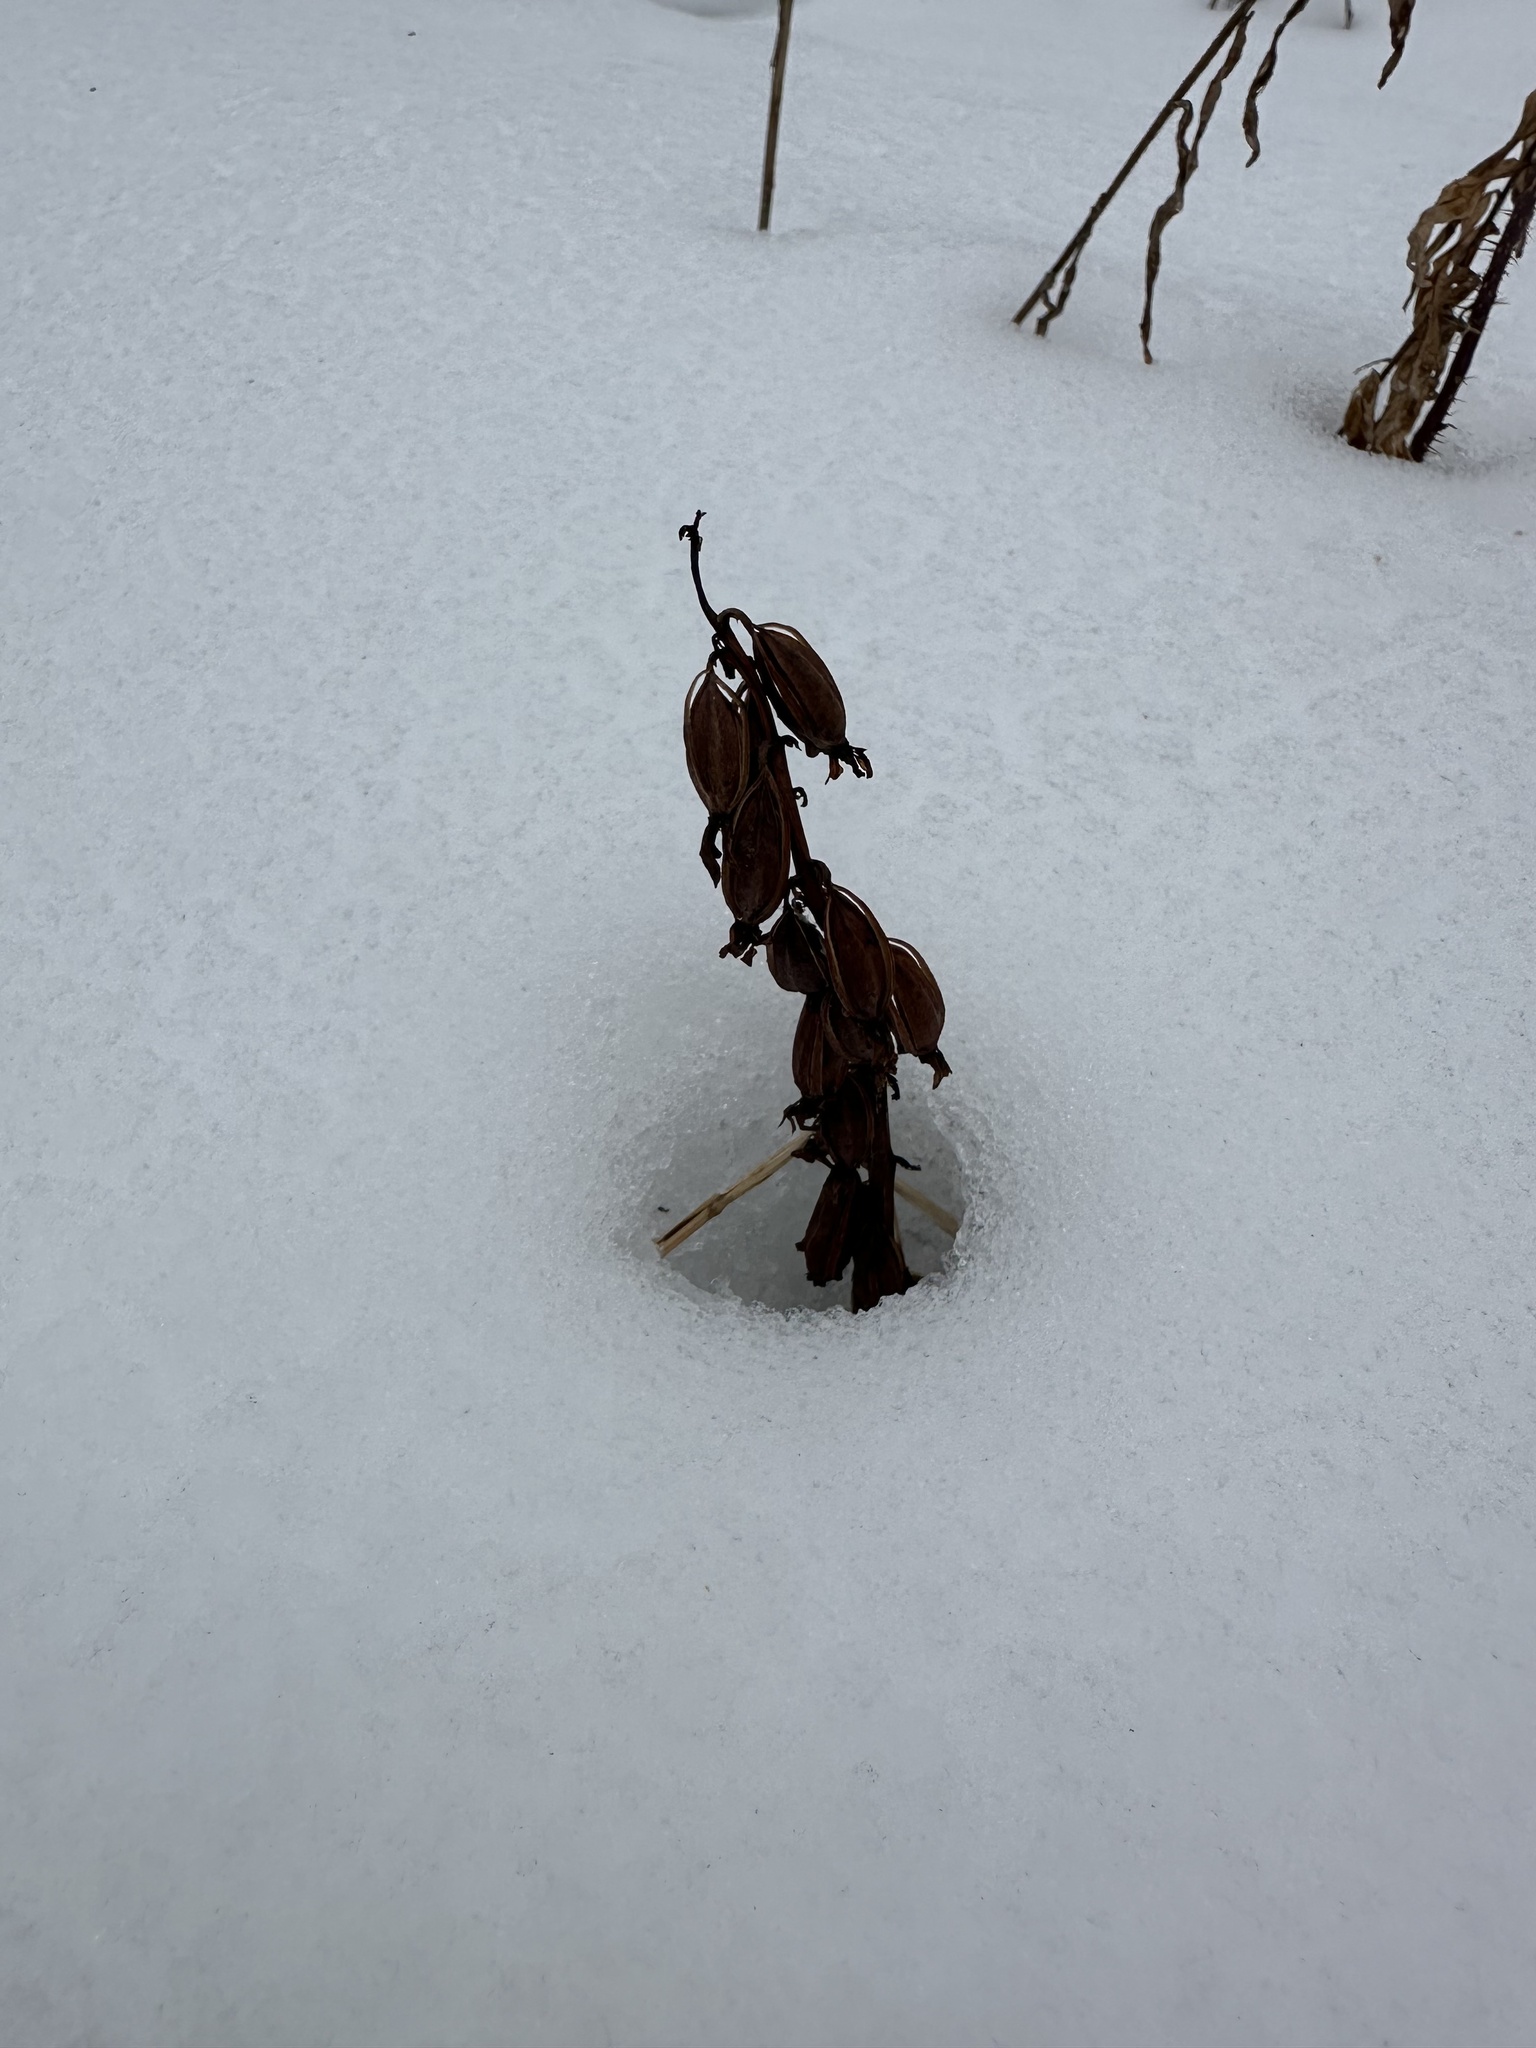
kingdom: Plantae
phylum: Tracheophyta
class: Liliopsida
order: Asparagales
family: Orchidaceae
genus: Corallorhiza
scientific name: Corallorhiza maculata
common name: Spotted coralroot
